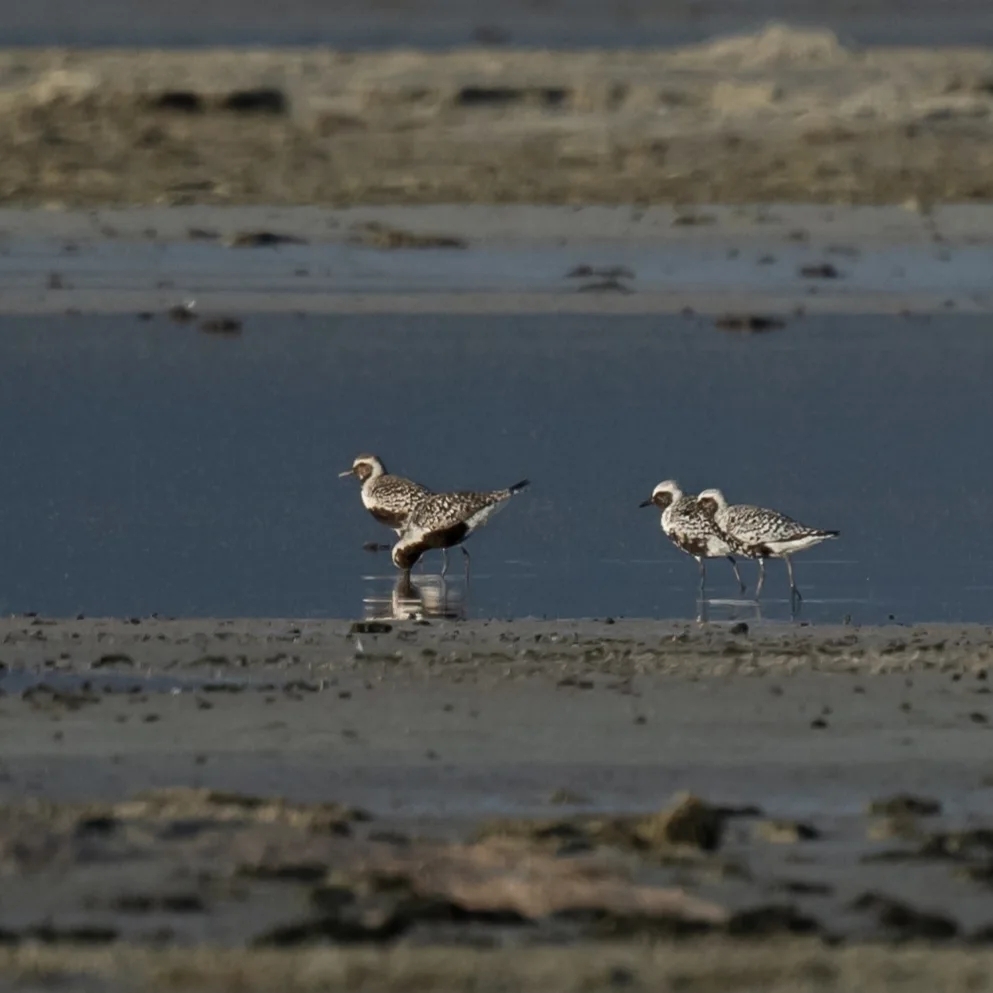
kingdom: Animalia
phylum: Chordata
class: Aves
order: Charadriiformes
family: Charadriidae
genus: Pluvialis
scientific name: Pluvialis squatarola
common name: Grey plover
